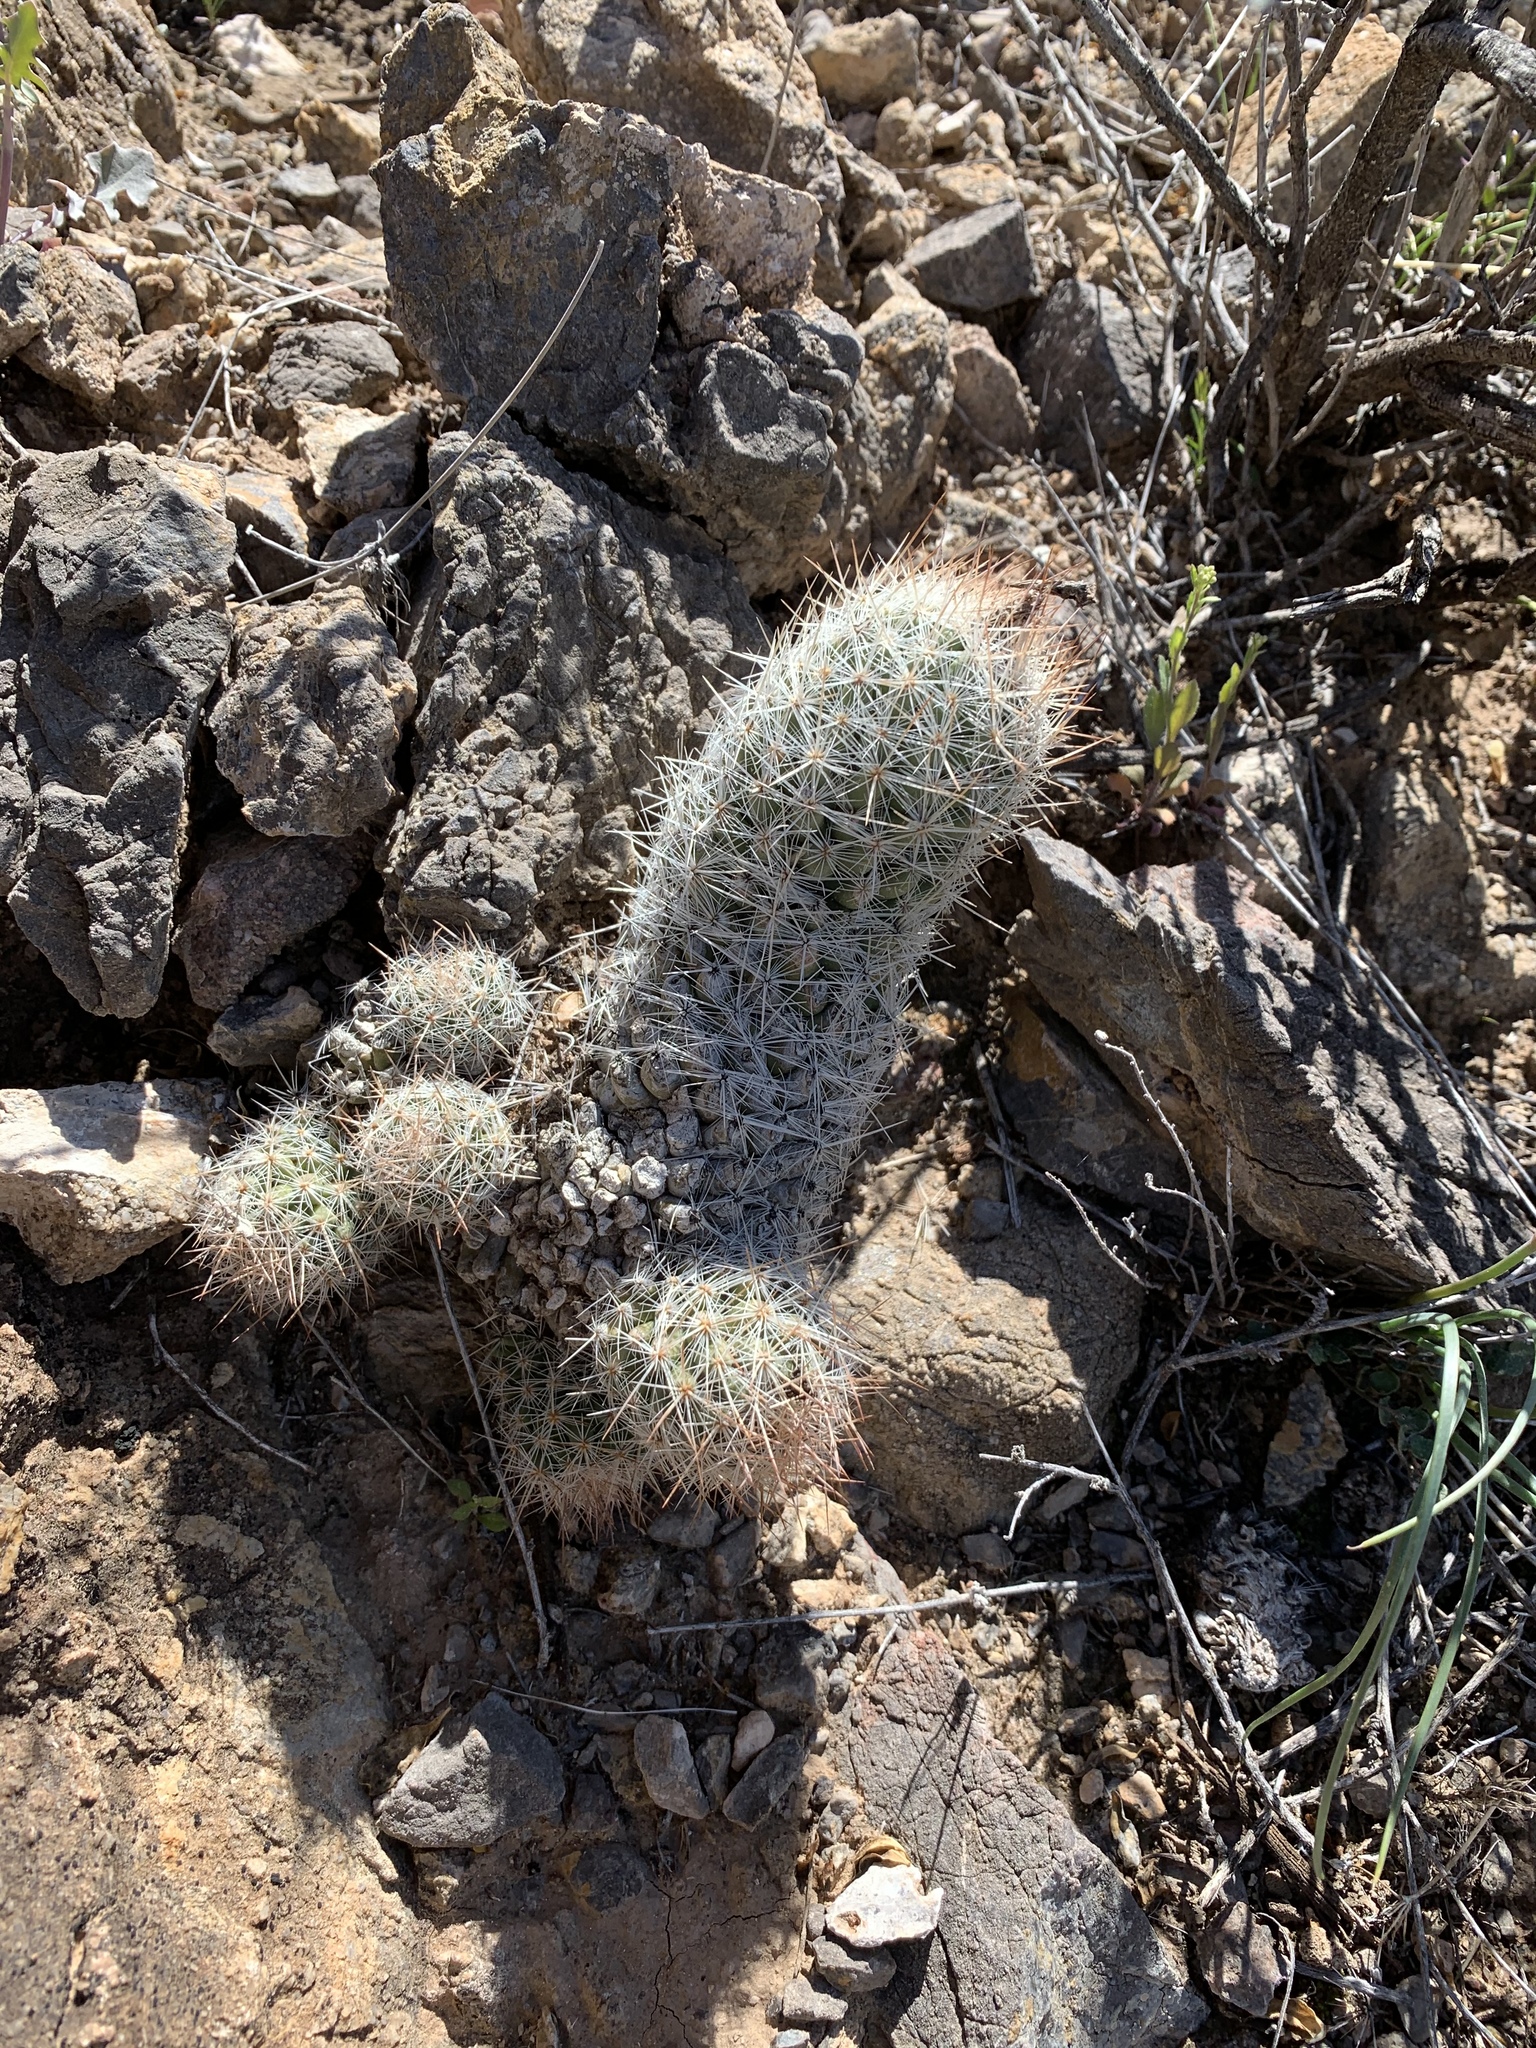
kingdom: Plantae
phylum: Tracheophyta
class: Magnoliopsida
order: Caryophyllales
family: Cactaceae
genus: Pelecyphora
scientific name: Pelecyphora tuberculosa
